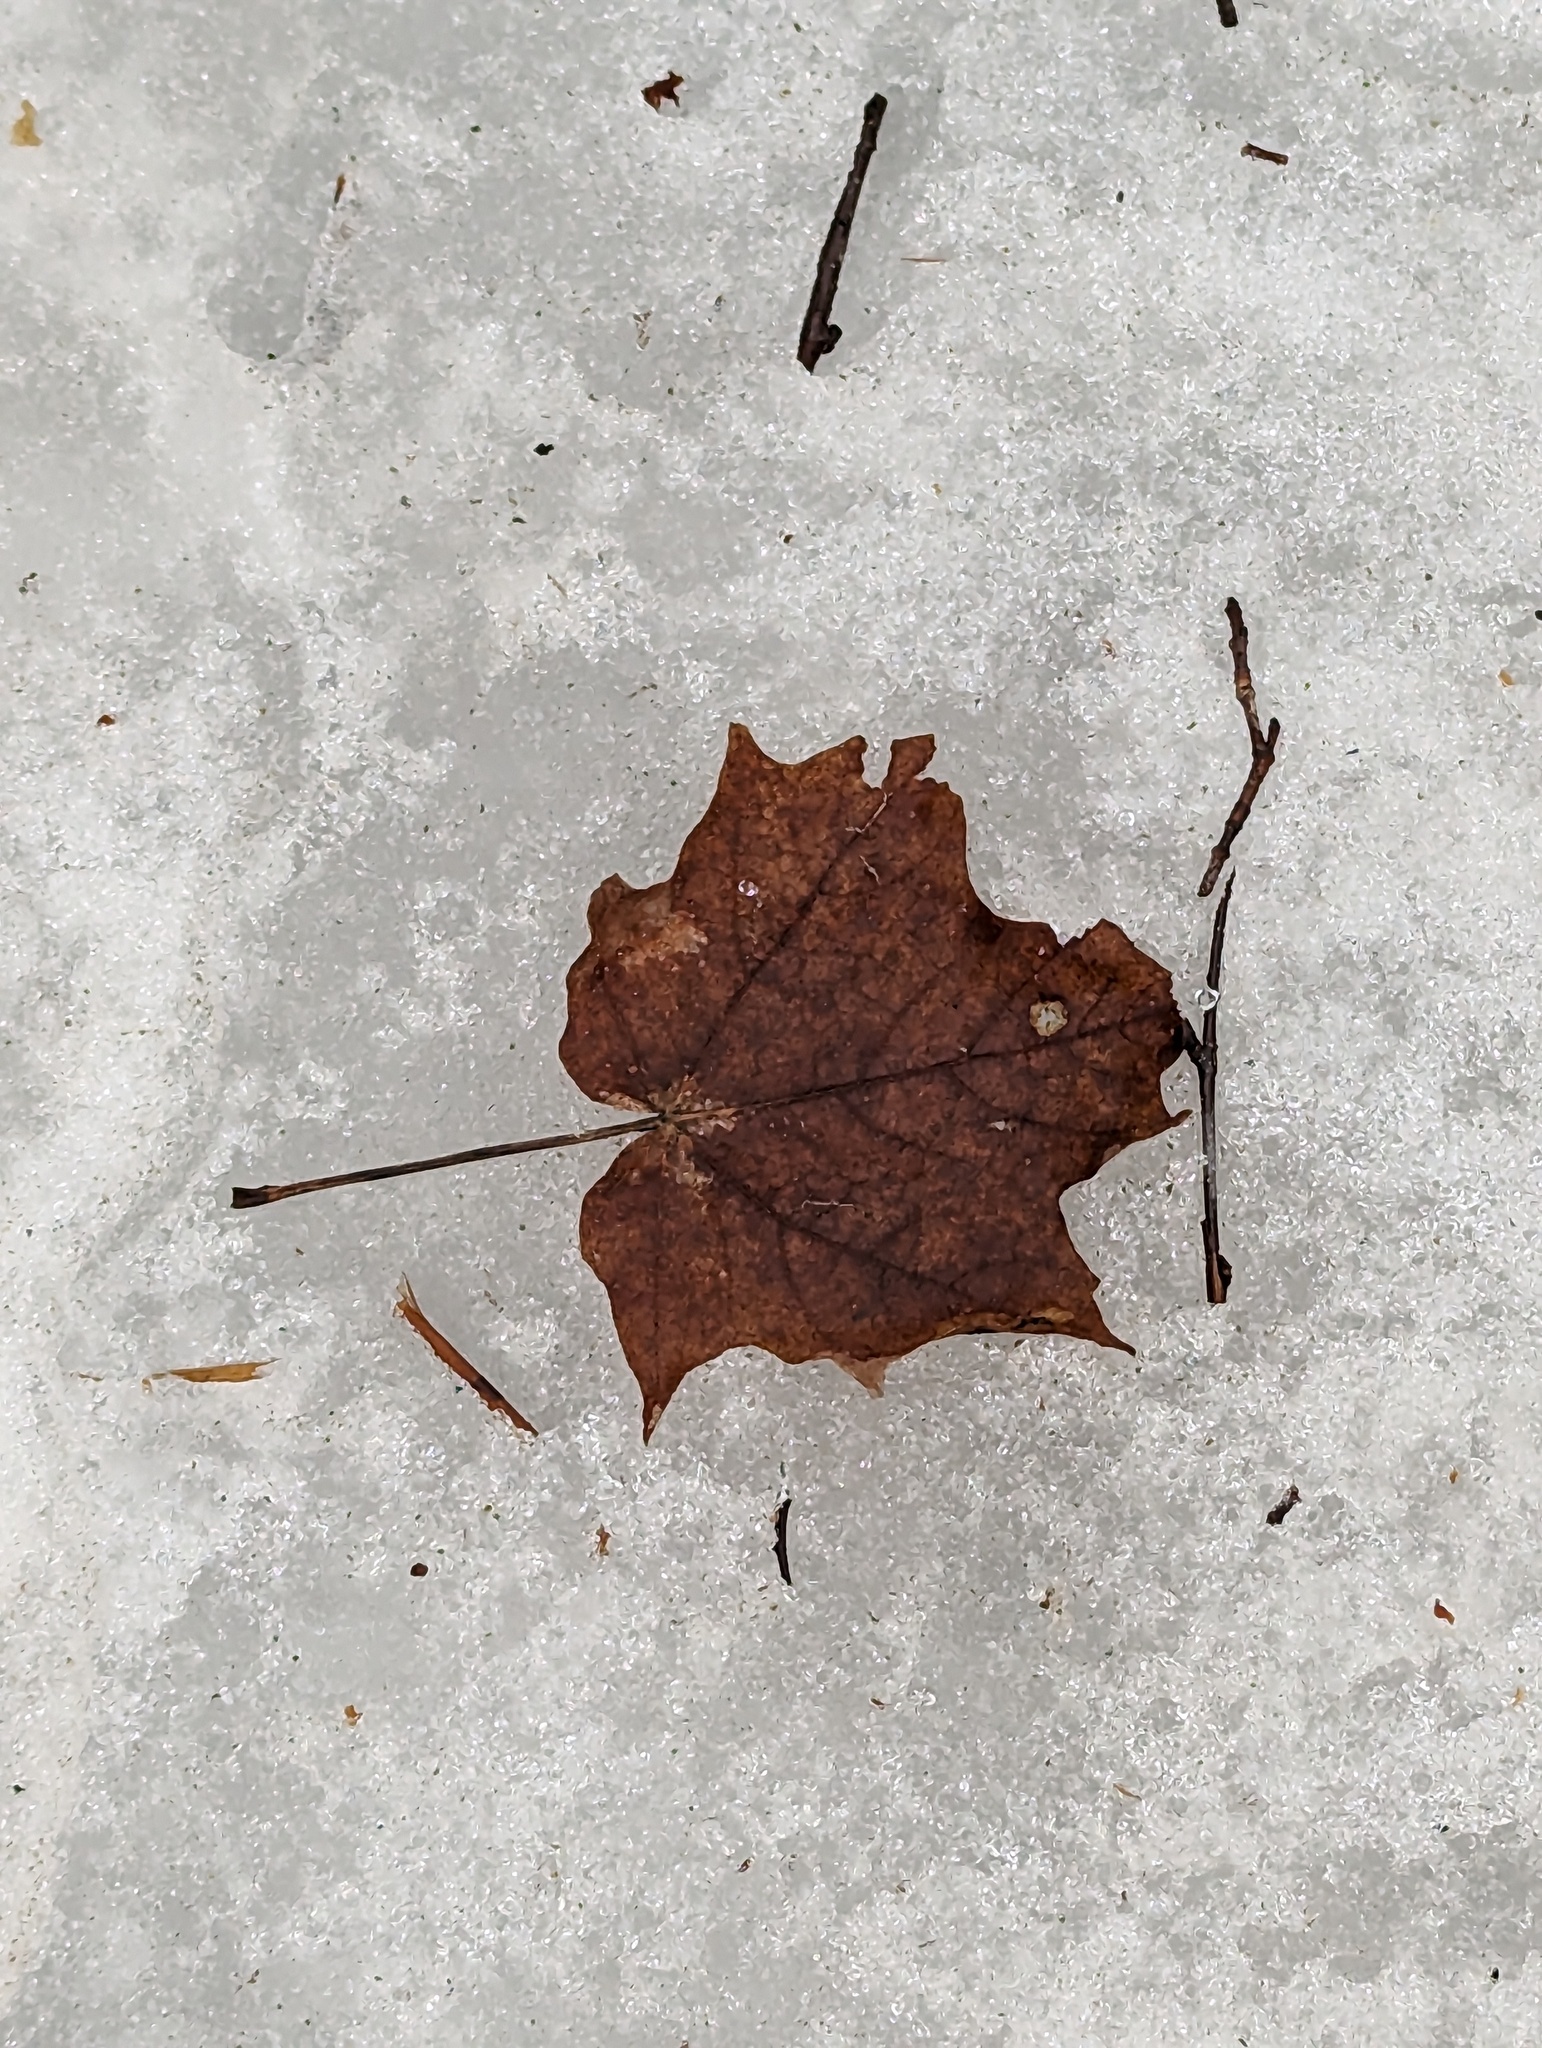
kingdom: Plantae
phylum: Tracheophyta
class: Magnoliopsida
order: Sapindales
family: Sapindaceae
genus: Acer
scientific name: Acer saccharum
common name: Sugar maple
